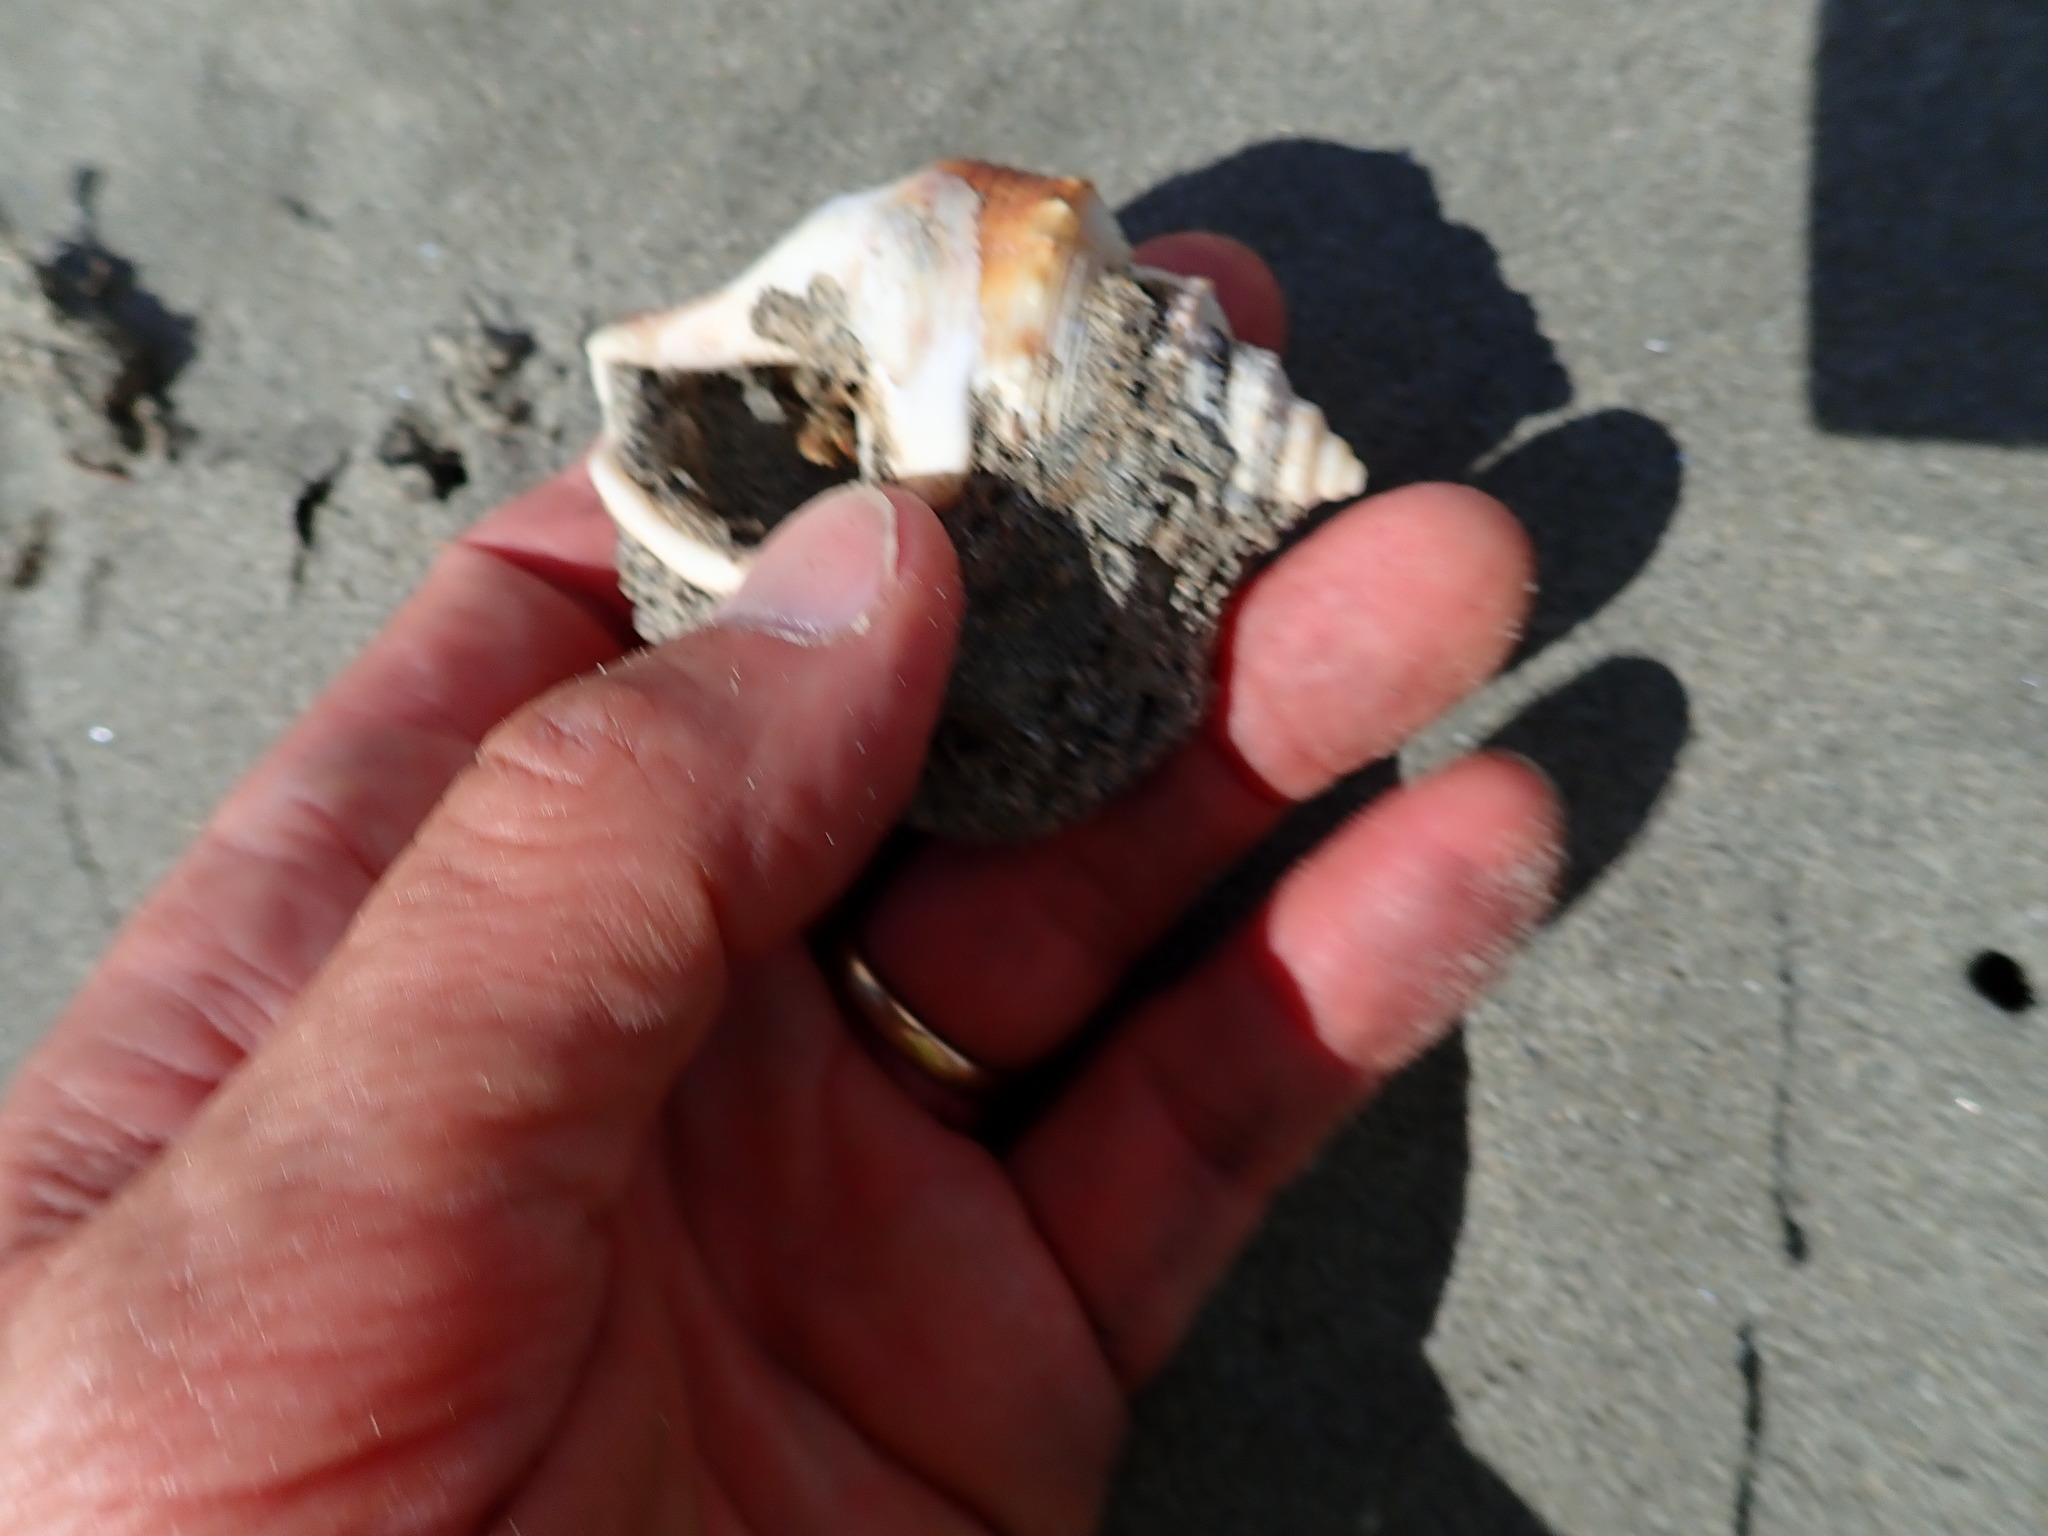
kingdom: Animalia
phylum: Mollusca
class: Gastropoda
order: Littorinimorpha
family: Struthiolariidae
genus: Struthiolaria
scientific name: Struthiolaria papulosa
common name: Large ostrich foot
